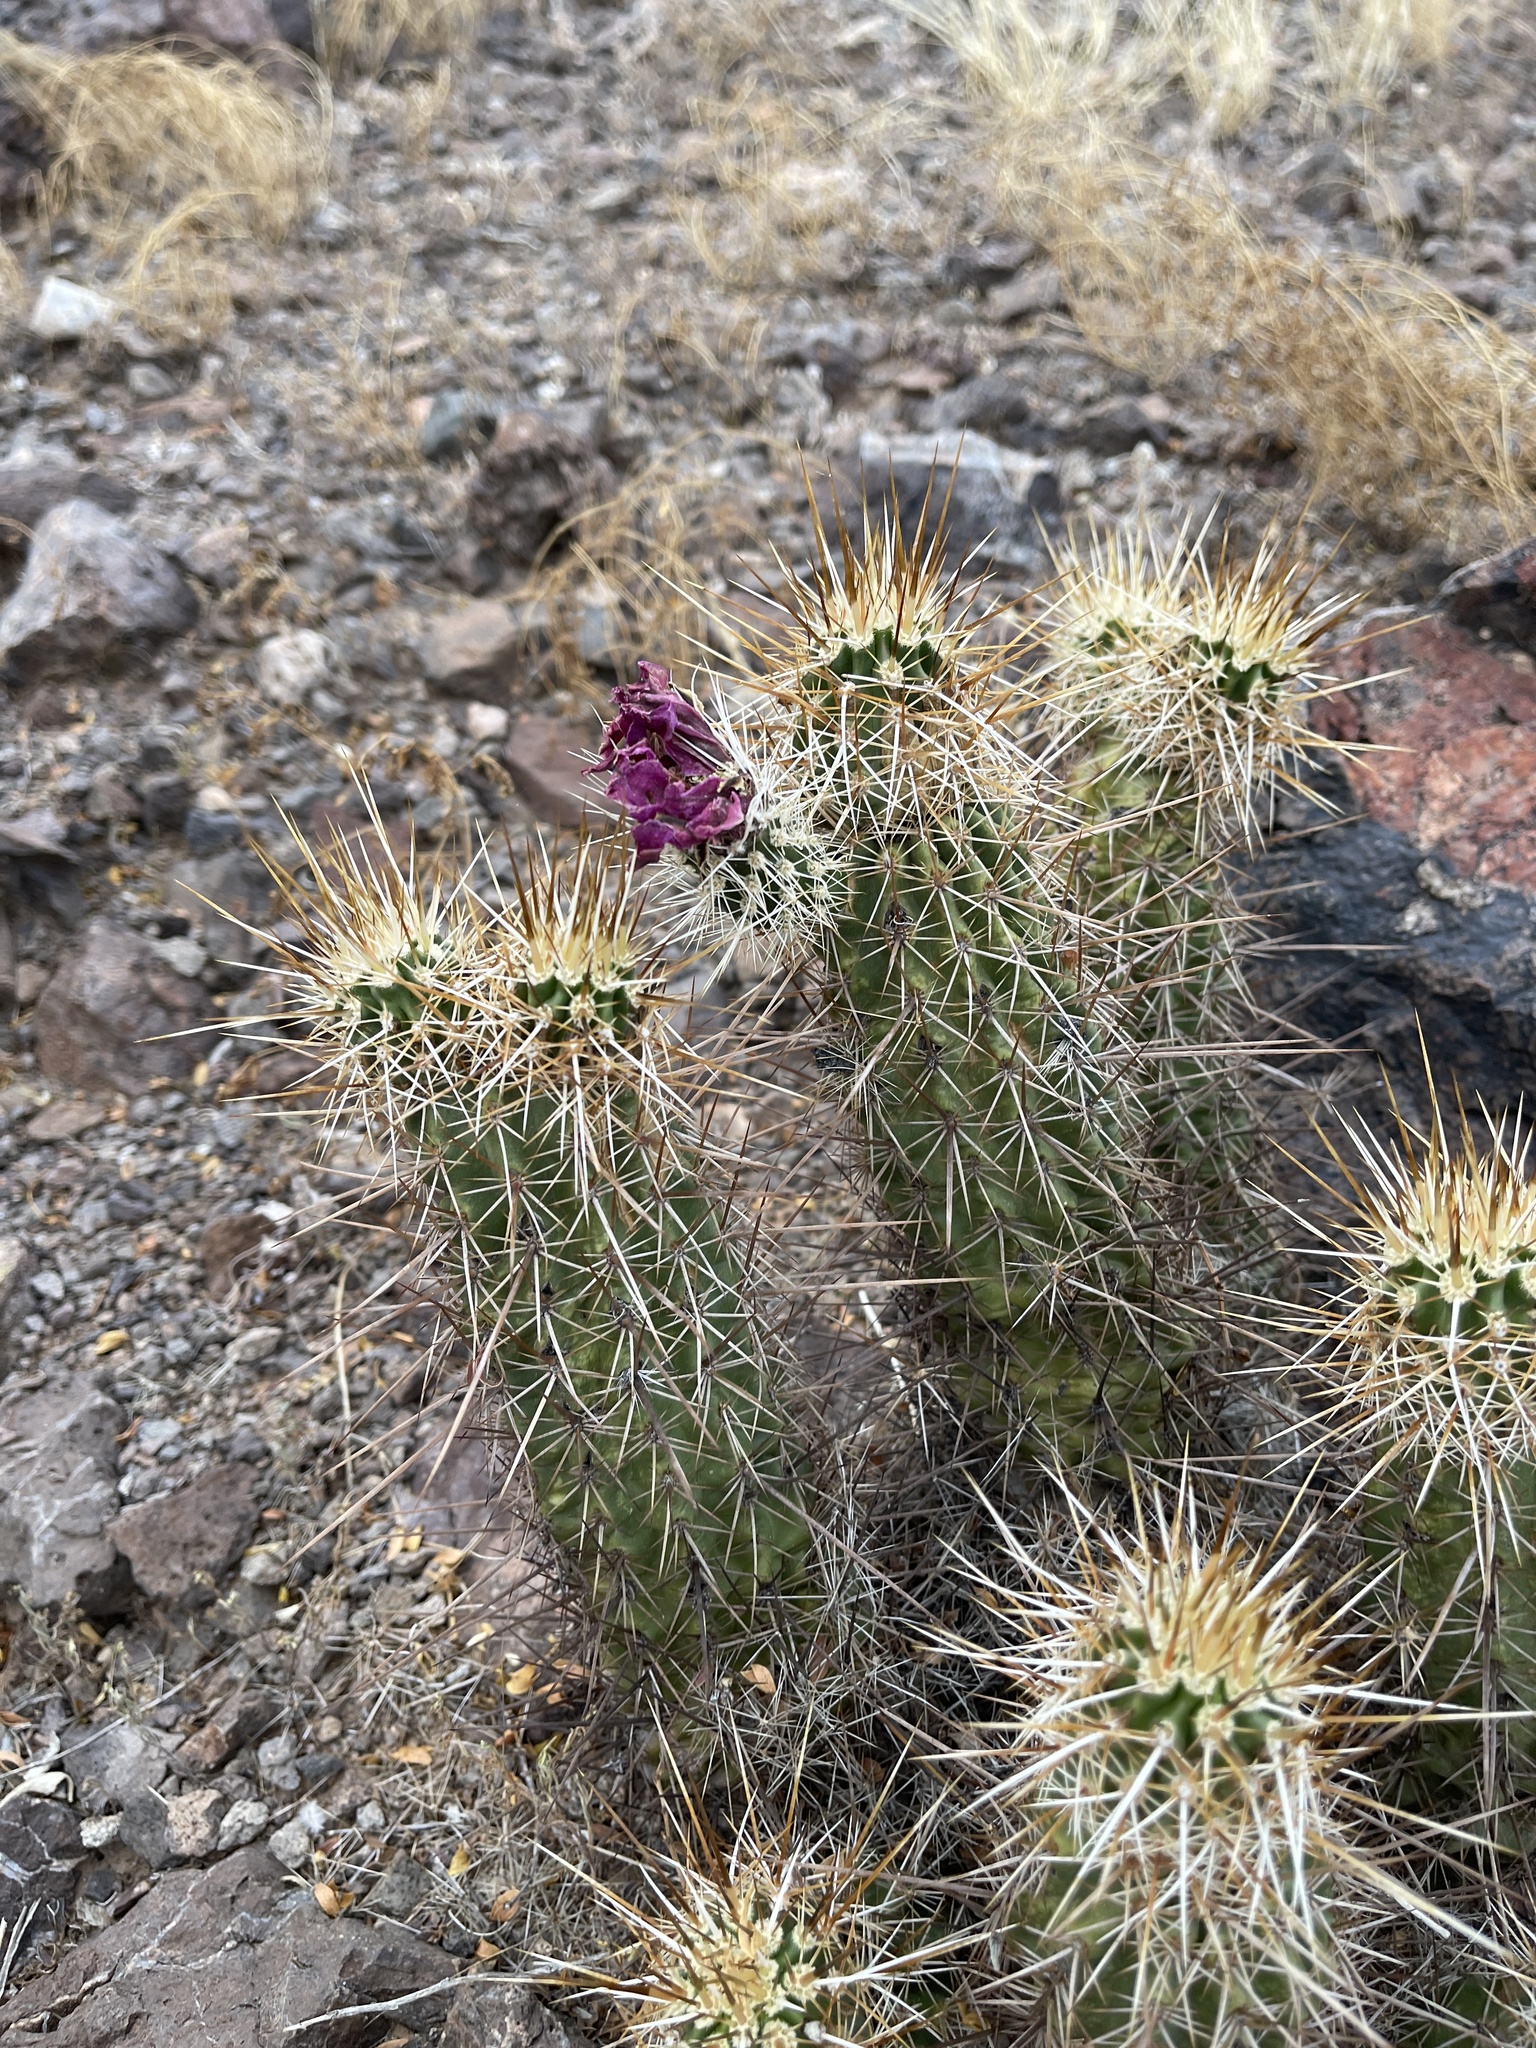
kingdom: Plantae
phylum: Tracheophyta
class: Magnoliopsida
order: Caryophyllales
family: Cactaceae
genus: Echinocereus
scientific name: Echinocereus engelmannii
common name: Engelmann's hedgehog cactus
